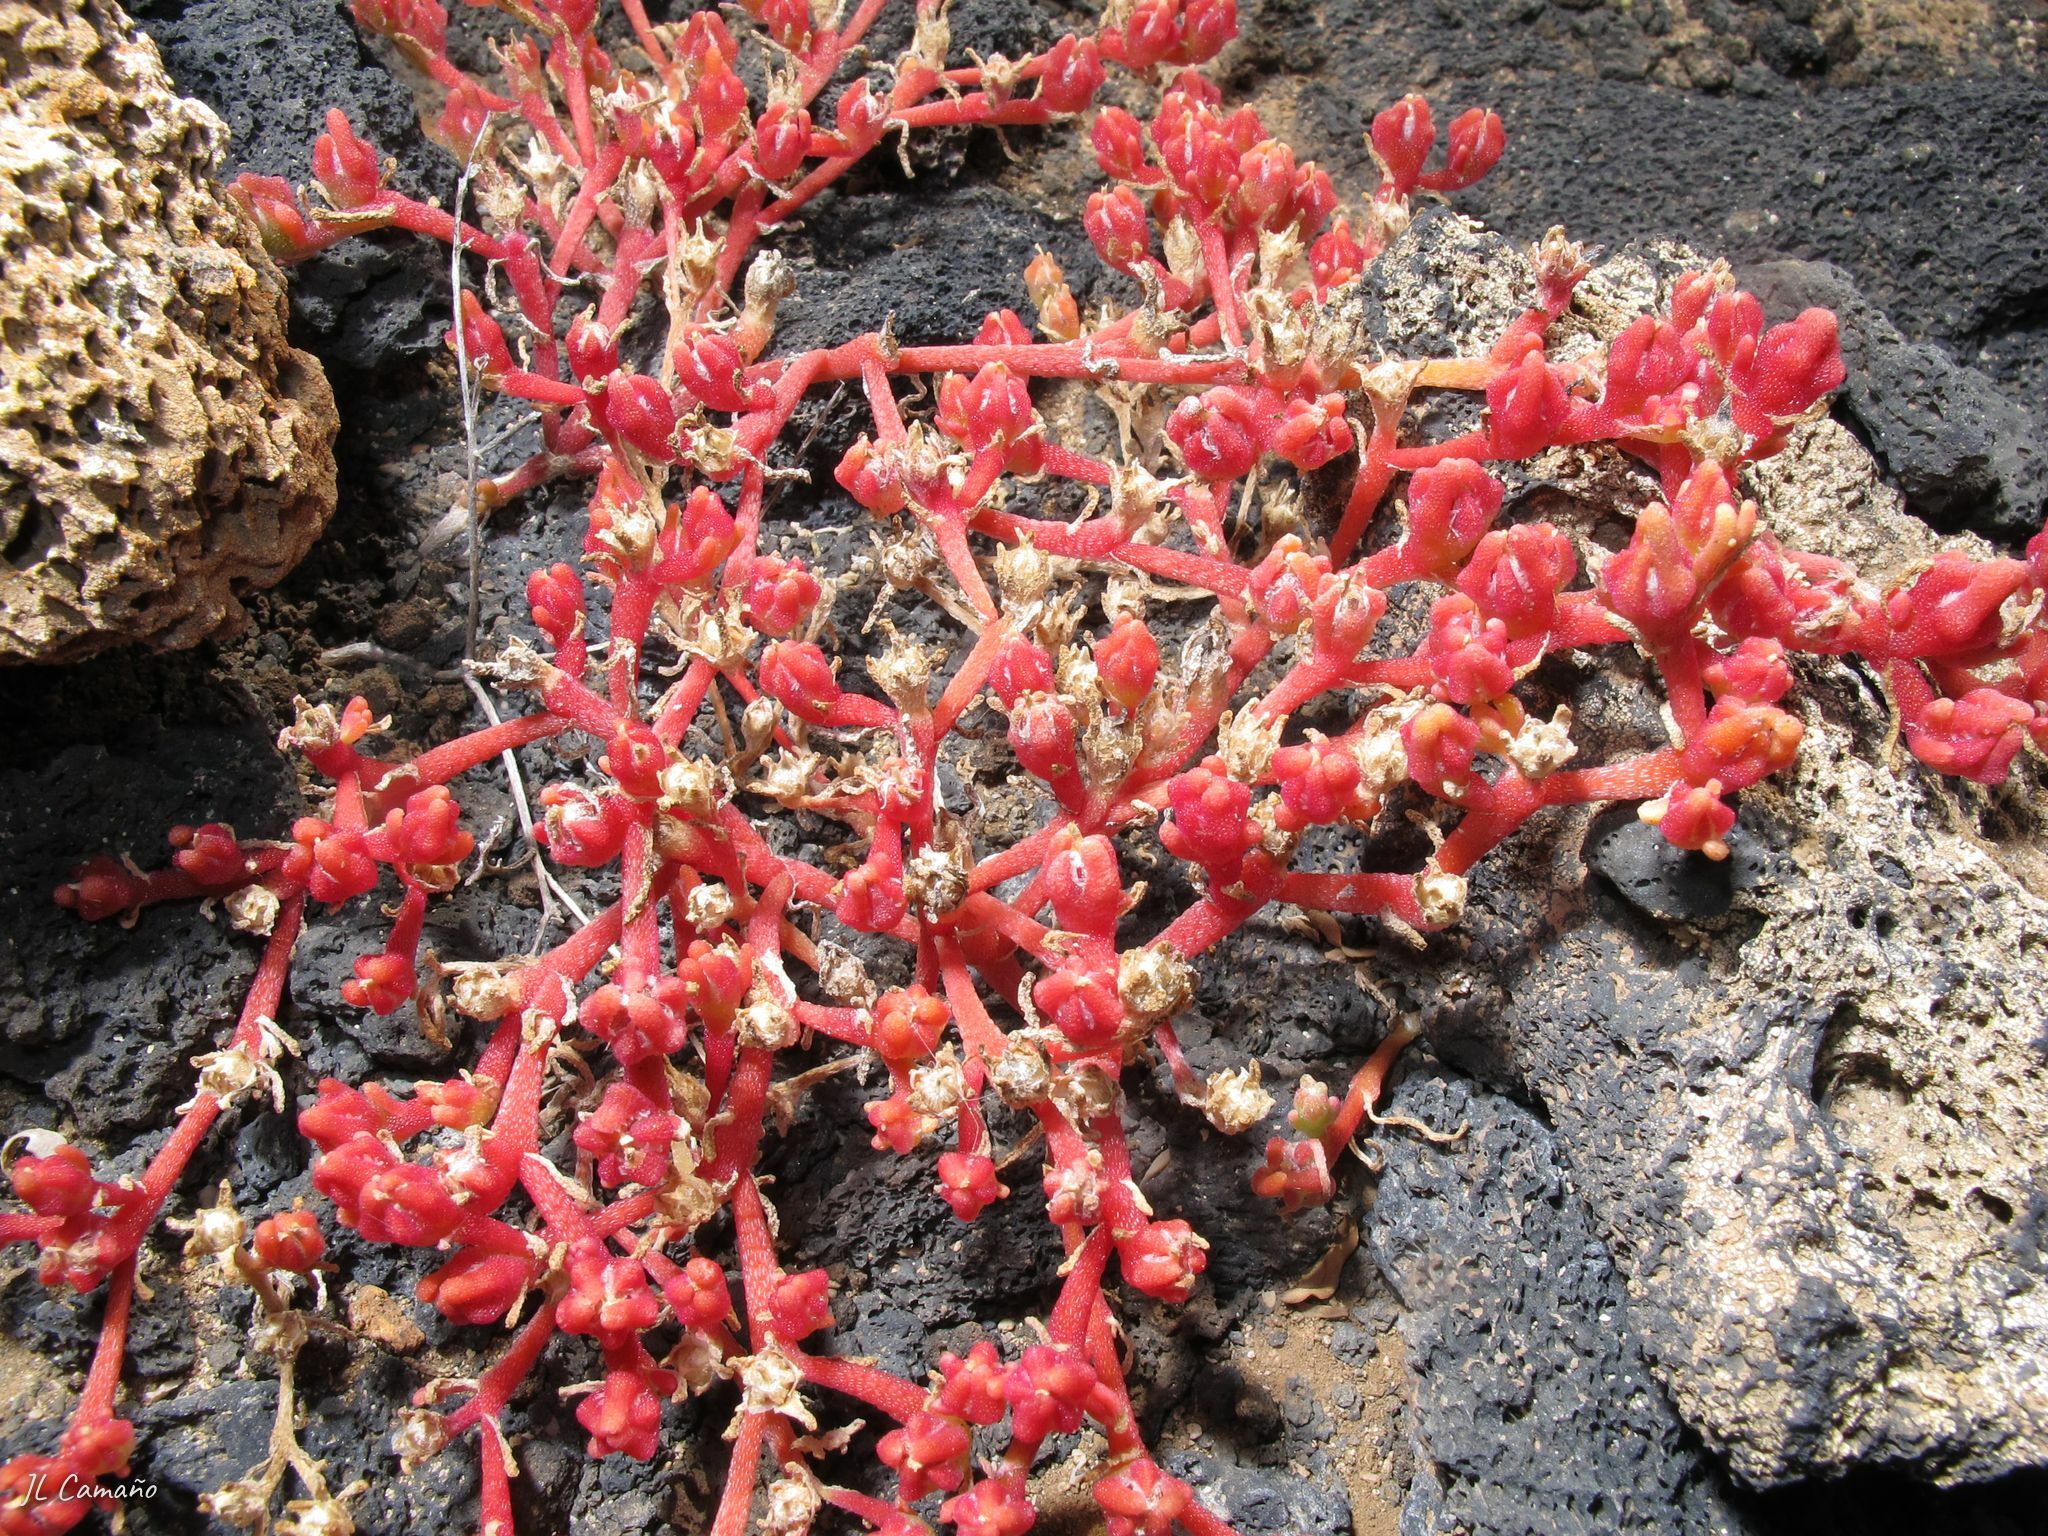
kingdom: Plantae
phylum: Tracheophyta
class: Magnoliopsida
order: Caryophyllales
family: Aizoaceae
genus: Mesembryanthemum
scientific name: Mesembryanthemum nodiflorum
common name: Slenderleaf iceplant
